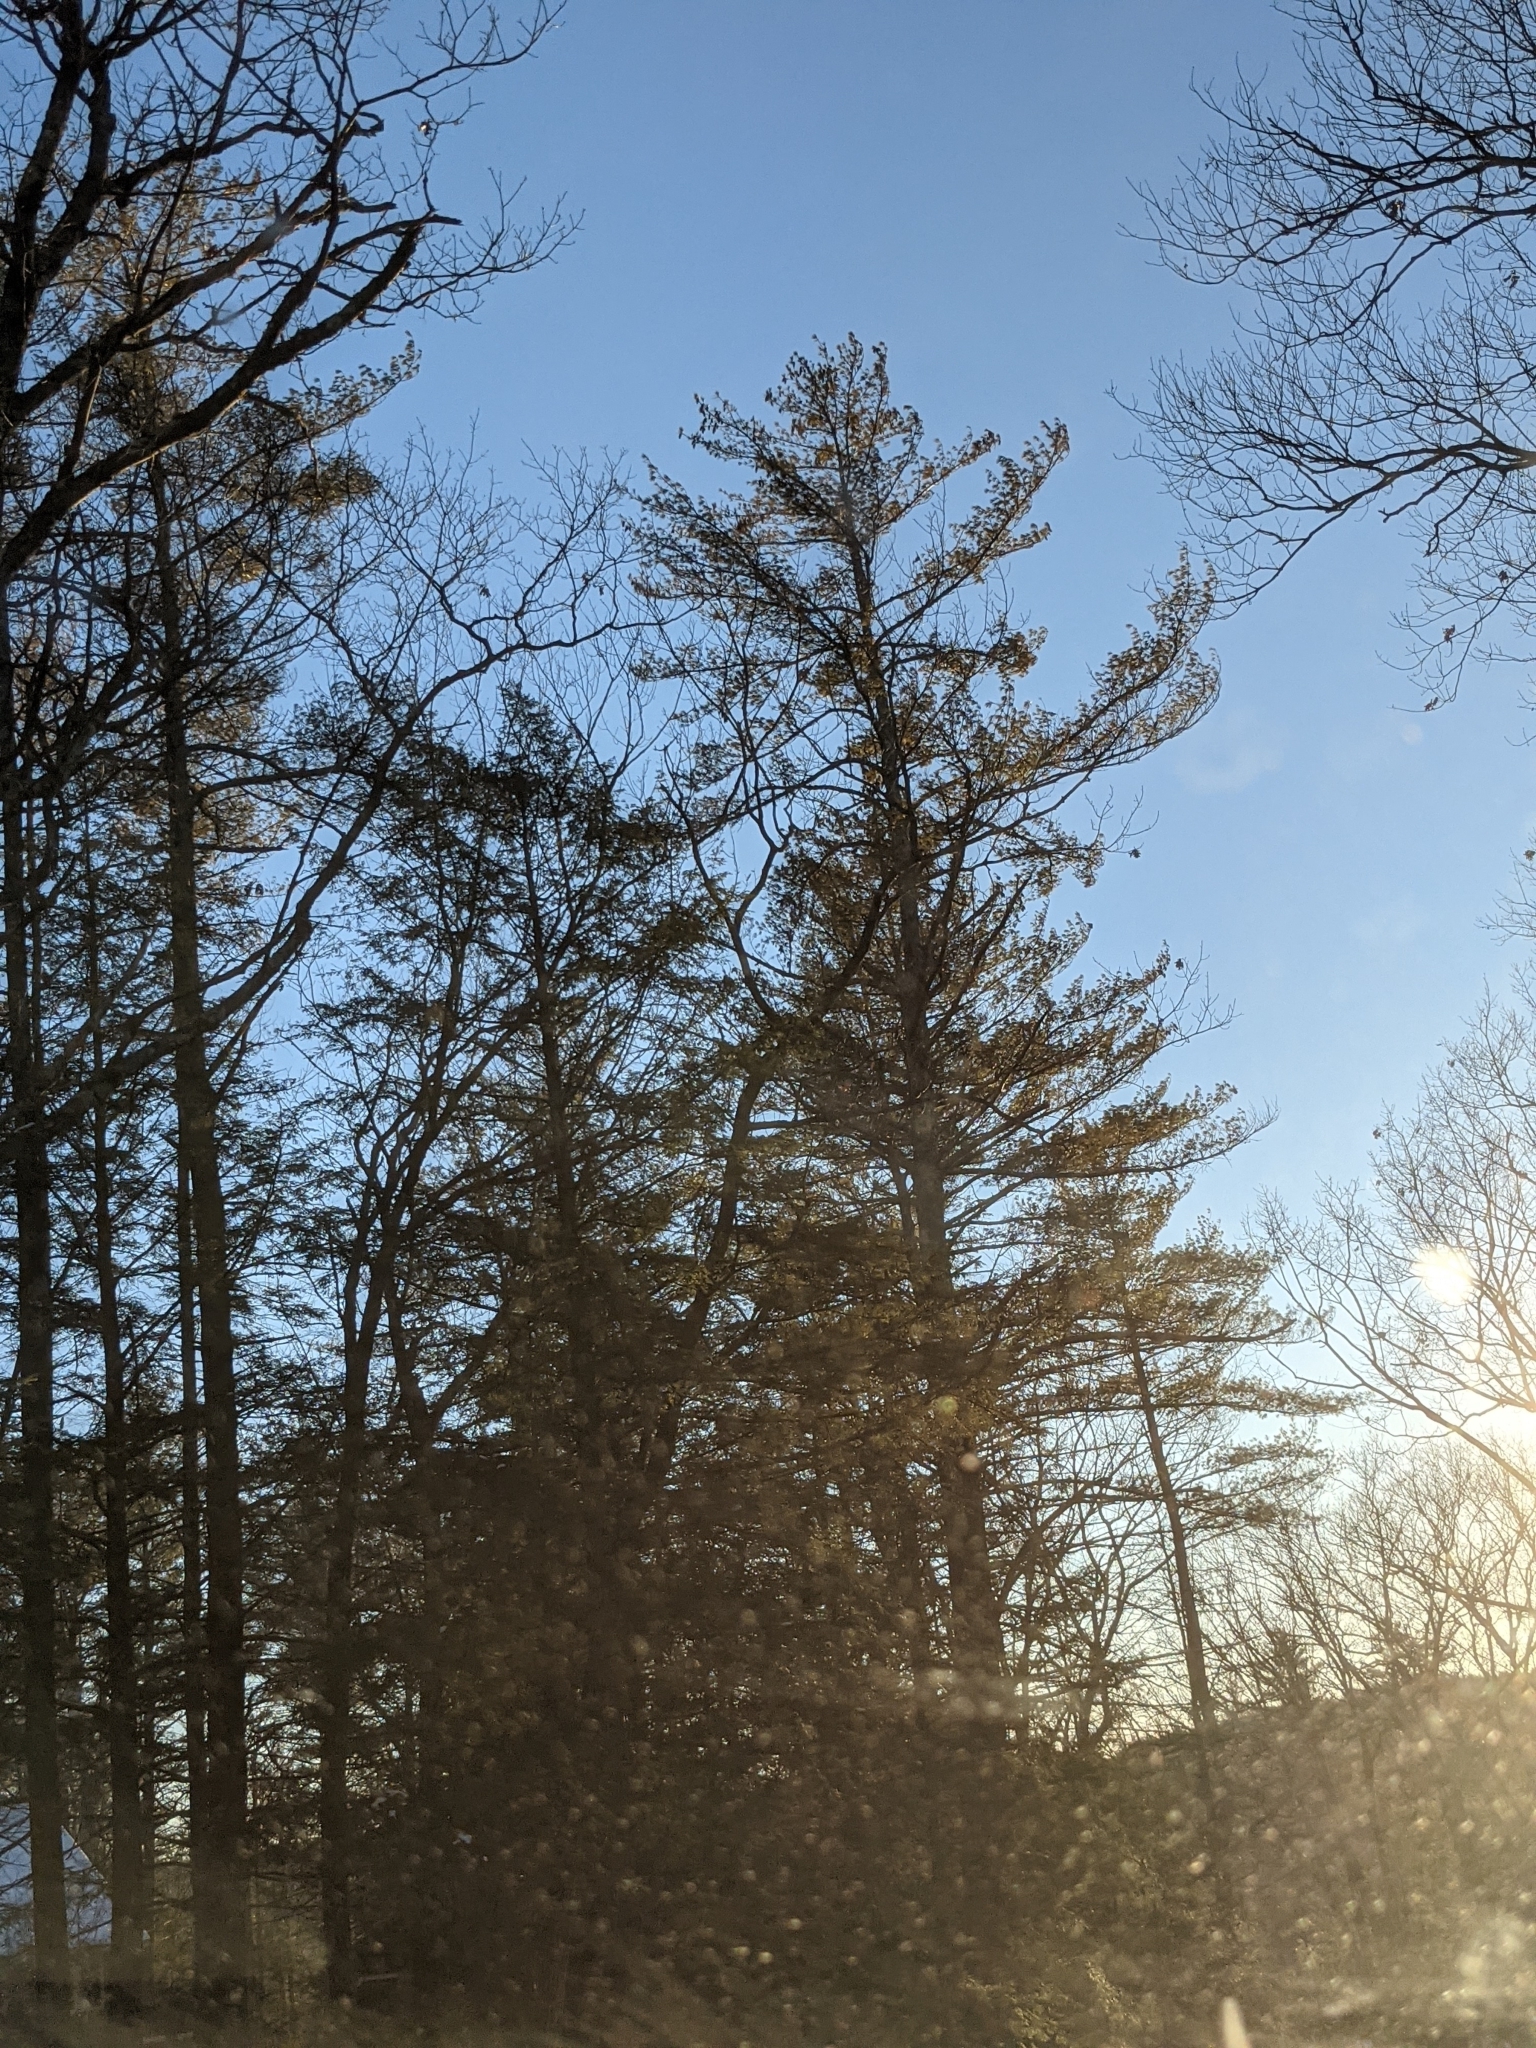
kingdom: Plantae
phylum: Tracheophyta
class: Pinopsida
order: Pinales
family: Pinaceae
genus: Pinus
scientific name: Pinus strobus
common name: Weymouth pine
